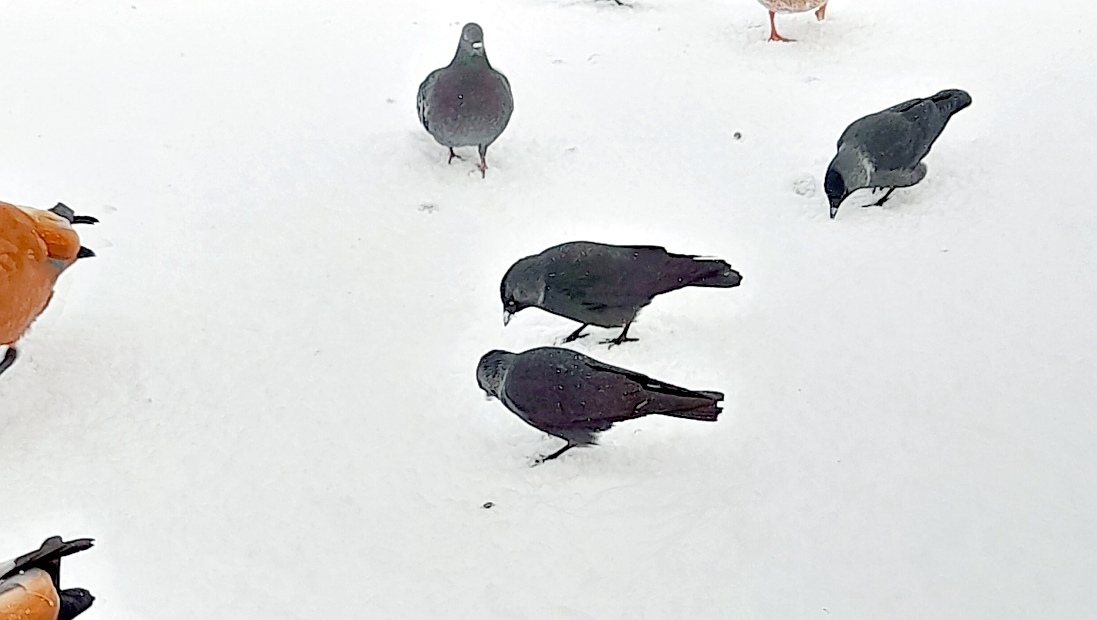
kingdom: Animalia
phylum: Chordata
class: Aves
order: Columbiformes
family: Columbidae
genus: Columba
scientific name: Columba livia
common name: Rock pigeon
